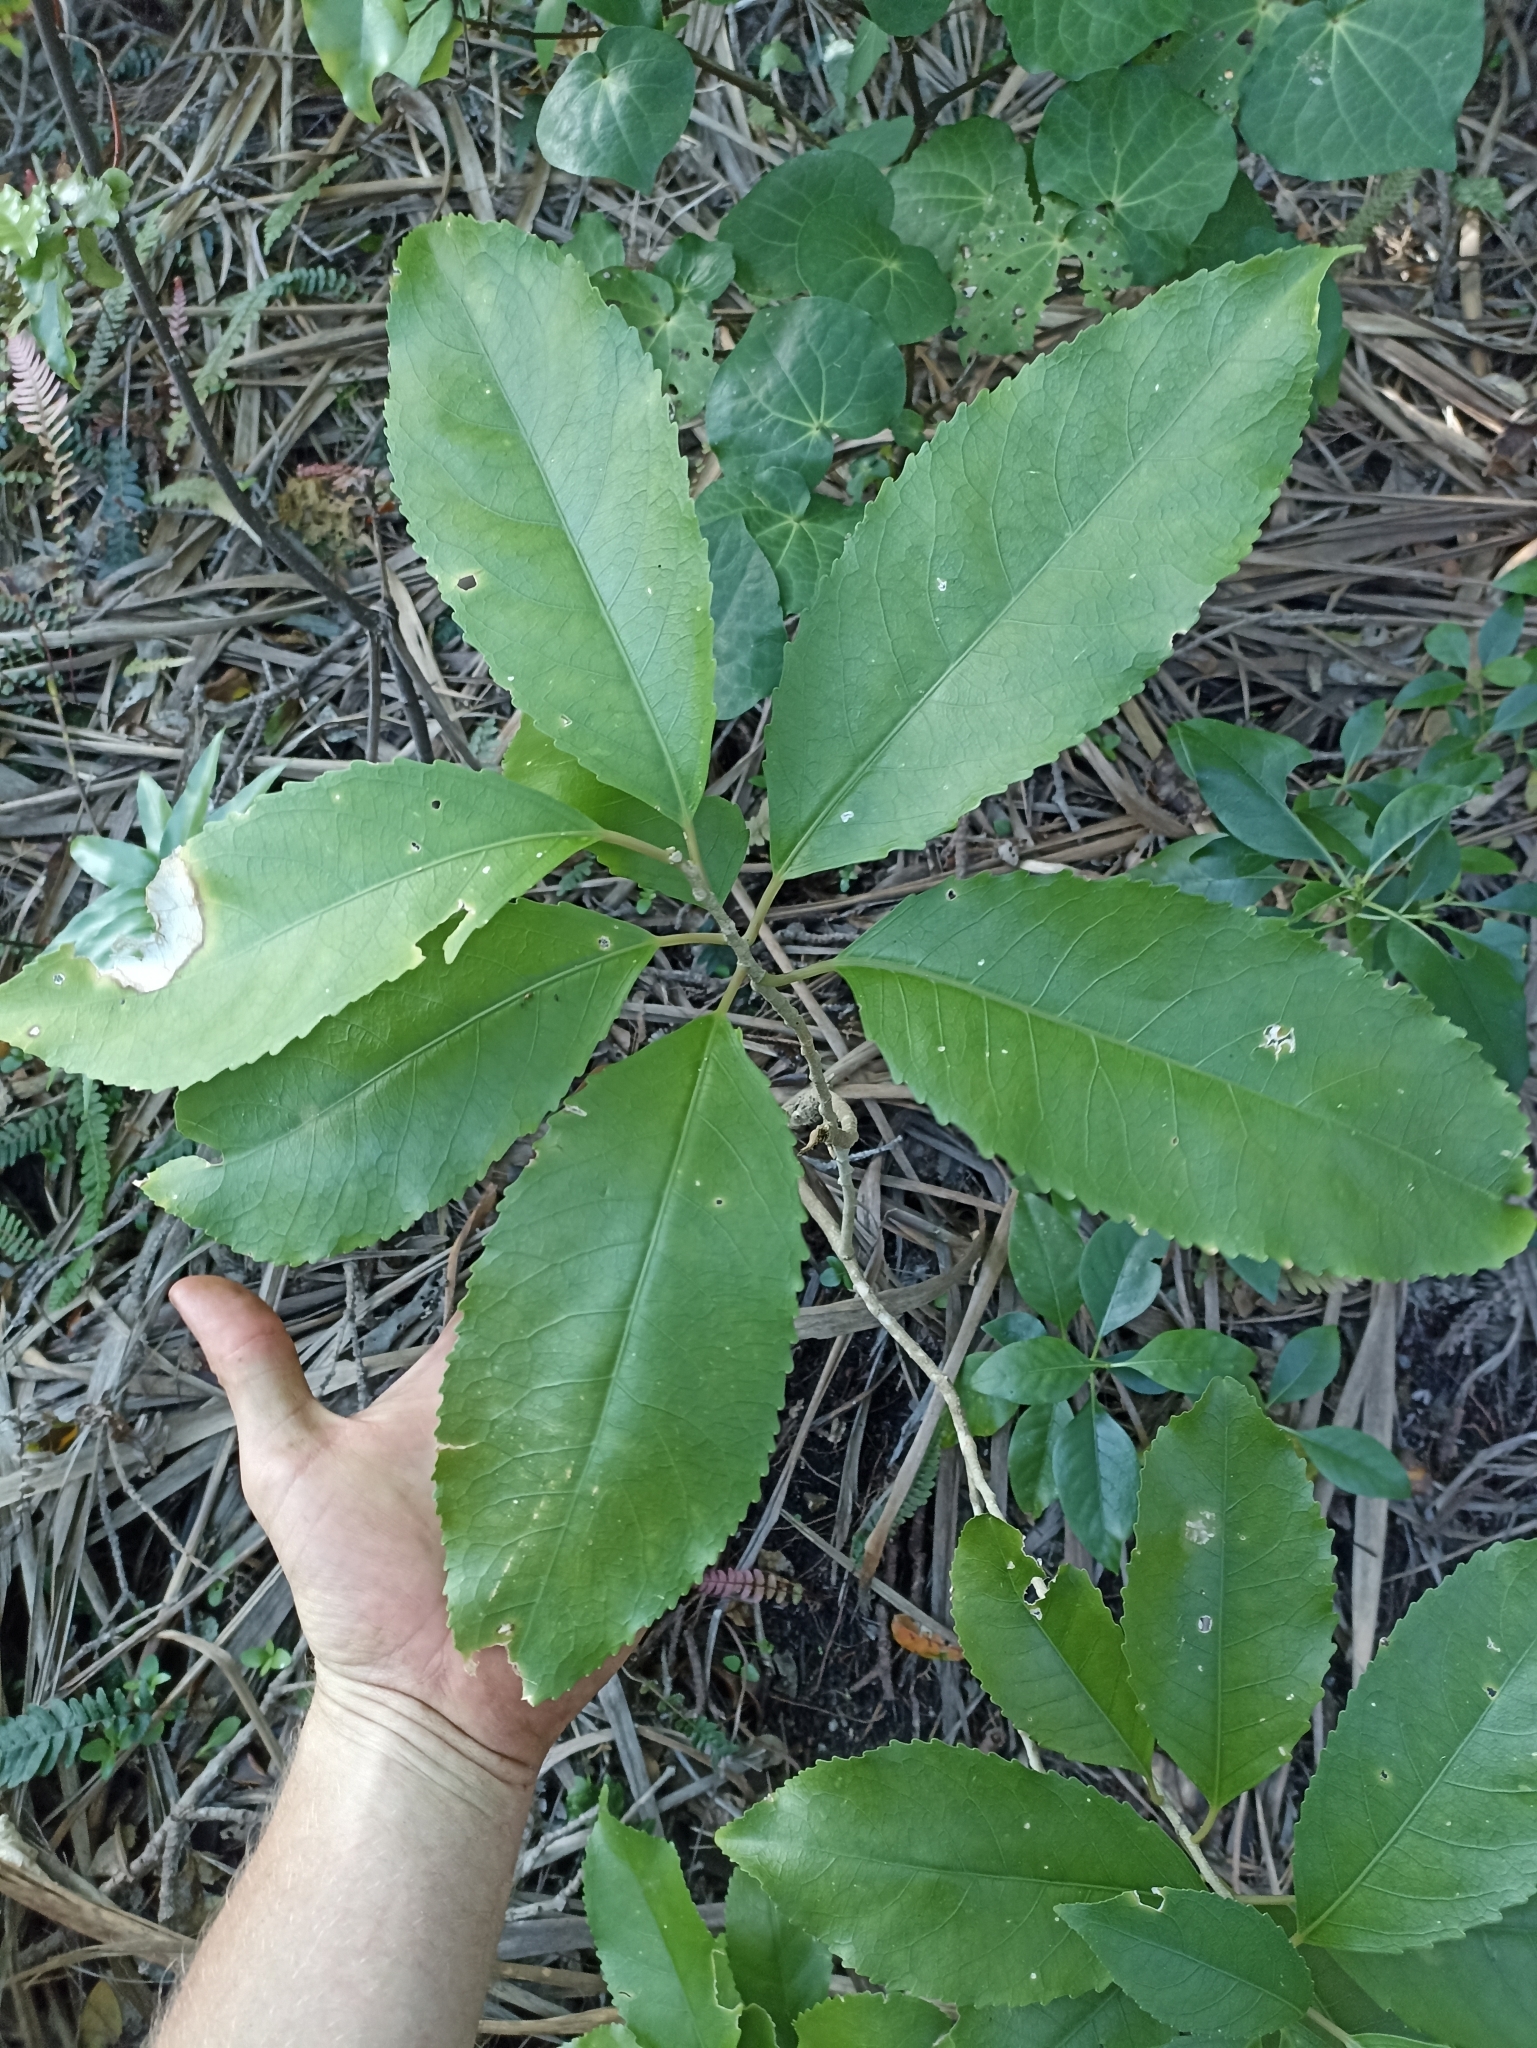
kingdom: Plantae
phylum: Tracheophyta
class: Magnoliopsida
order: Malpighiales
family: Violaceae
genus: Melicytus
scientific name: Melicytus ramiflorus
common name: Mahoe
